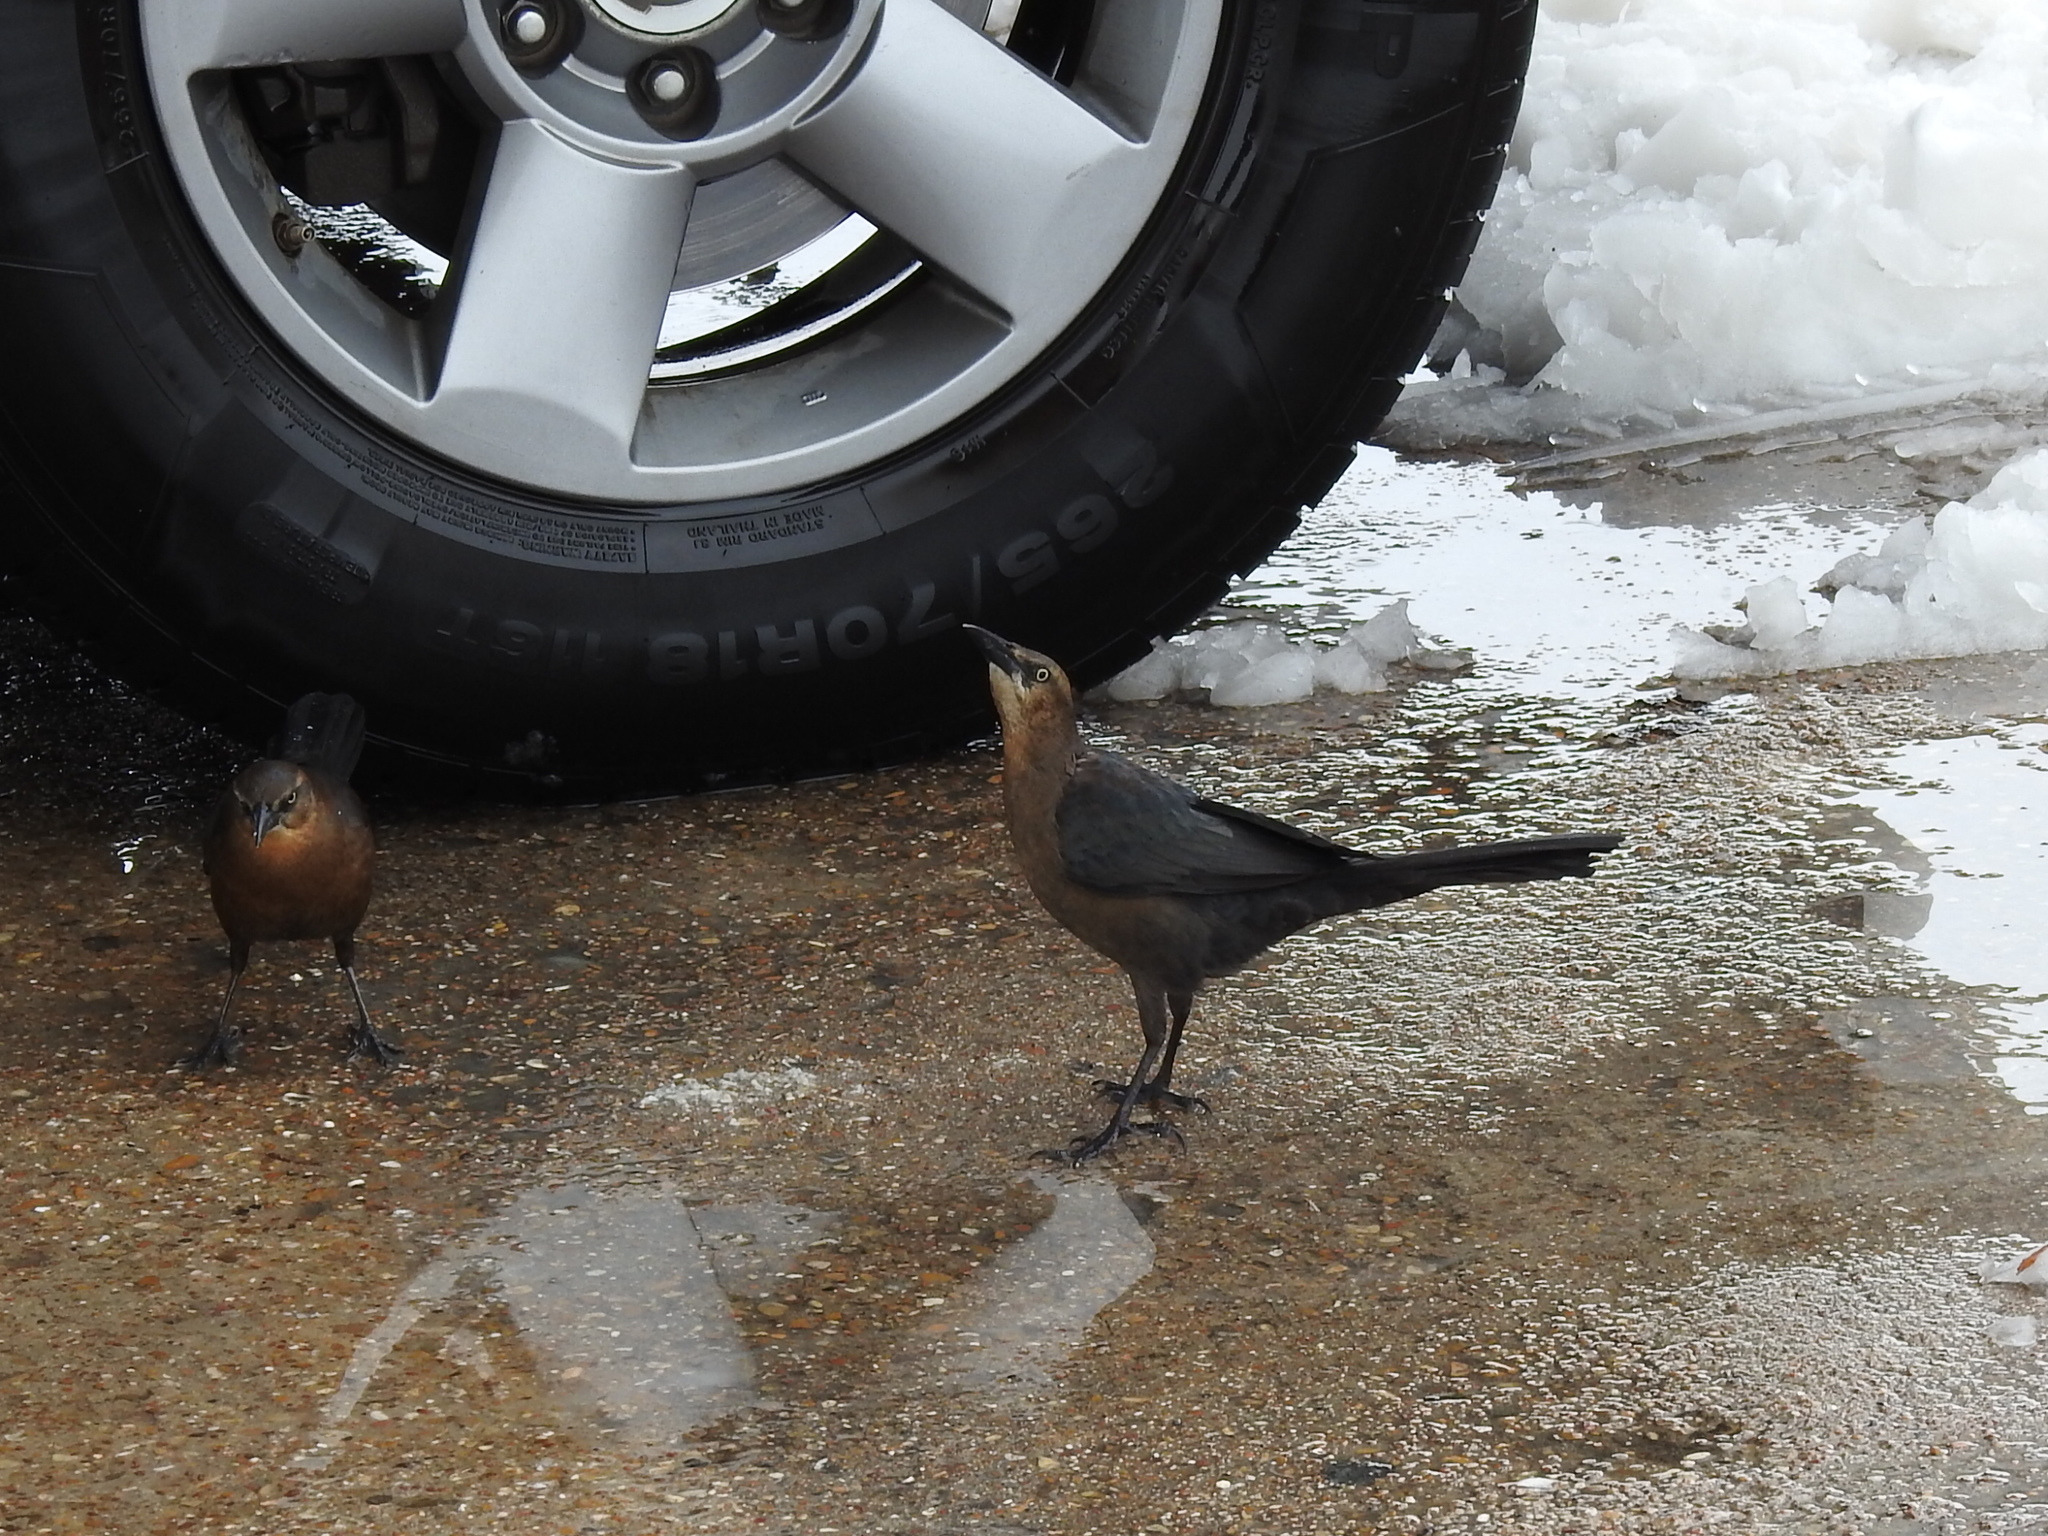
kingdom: Animalia
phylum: Chordata
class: Aves
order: Passeriformes
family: Icteridae
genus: Quiscalus
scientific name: Quiscalus mexicanus
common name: Great-tailed grackle
